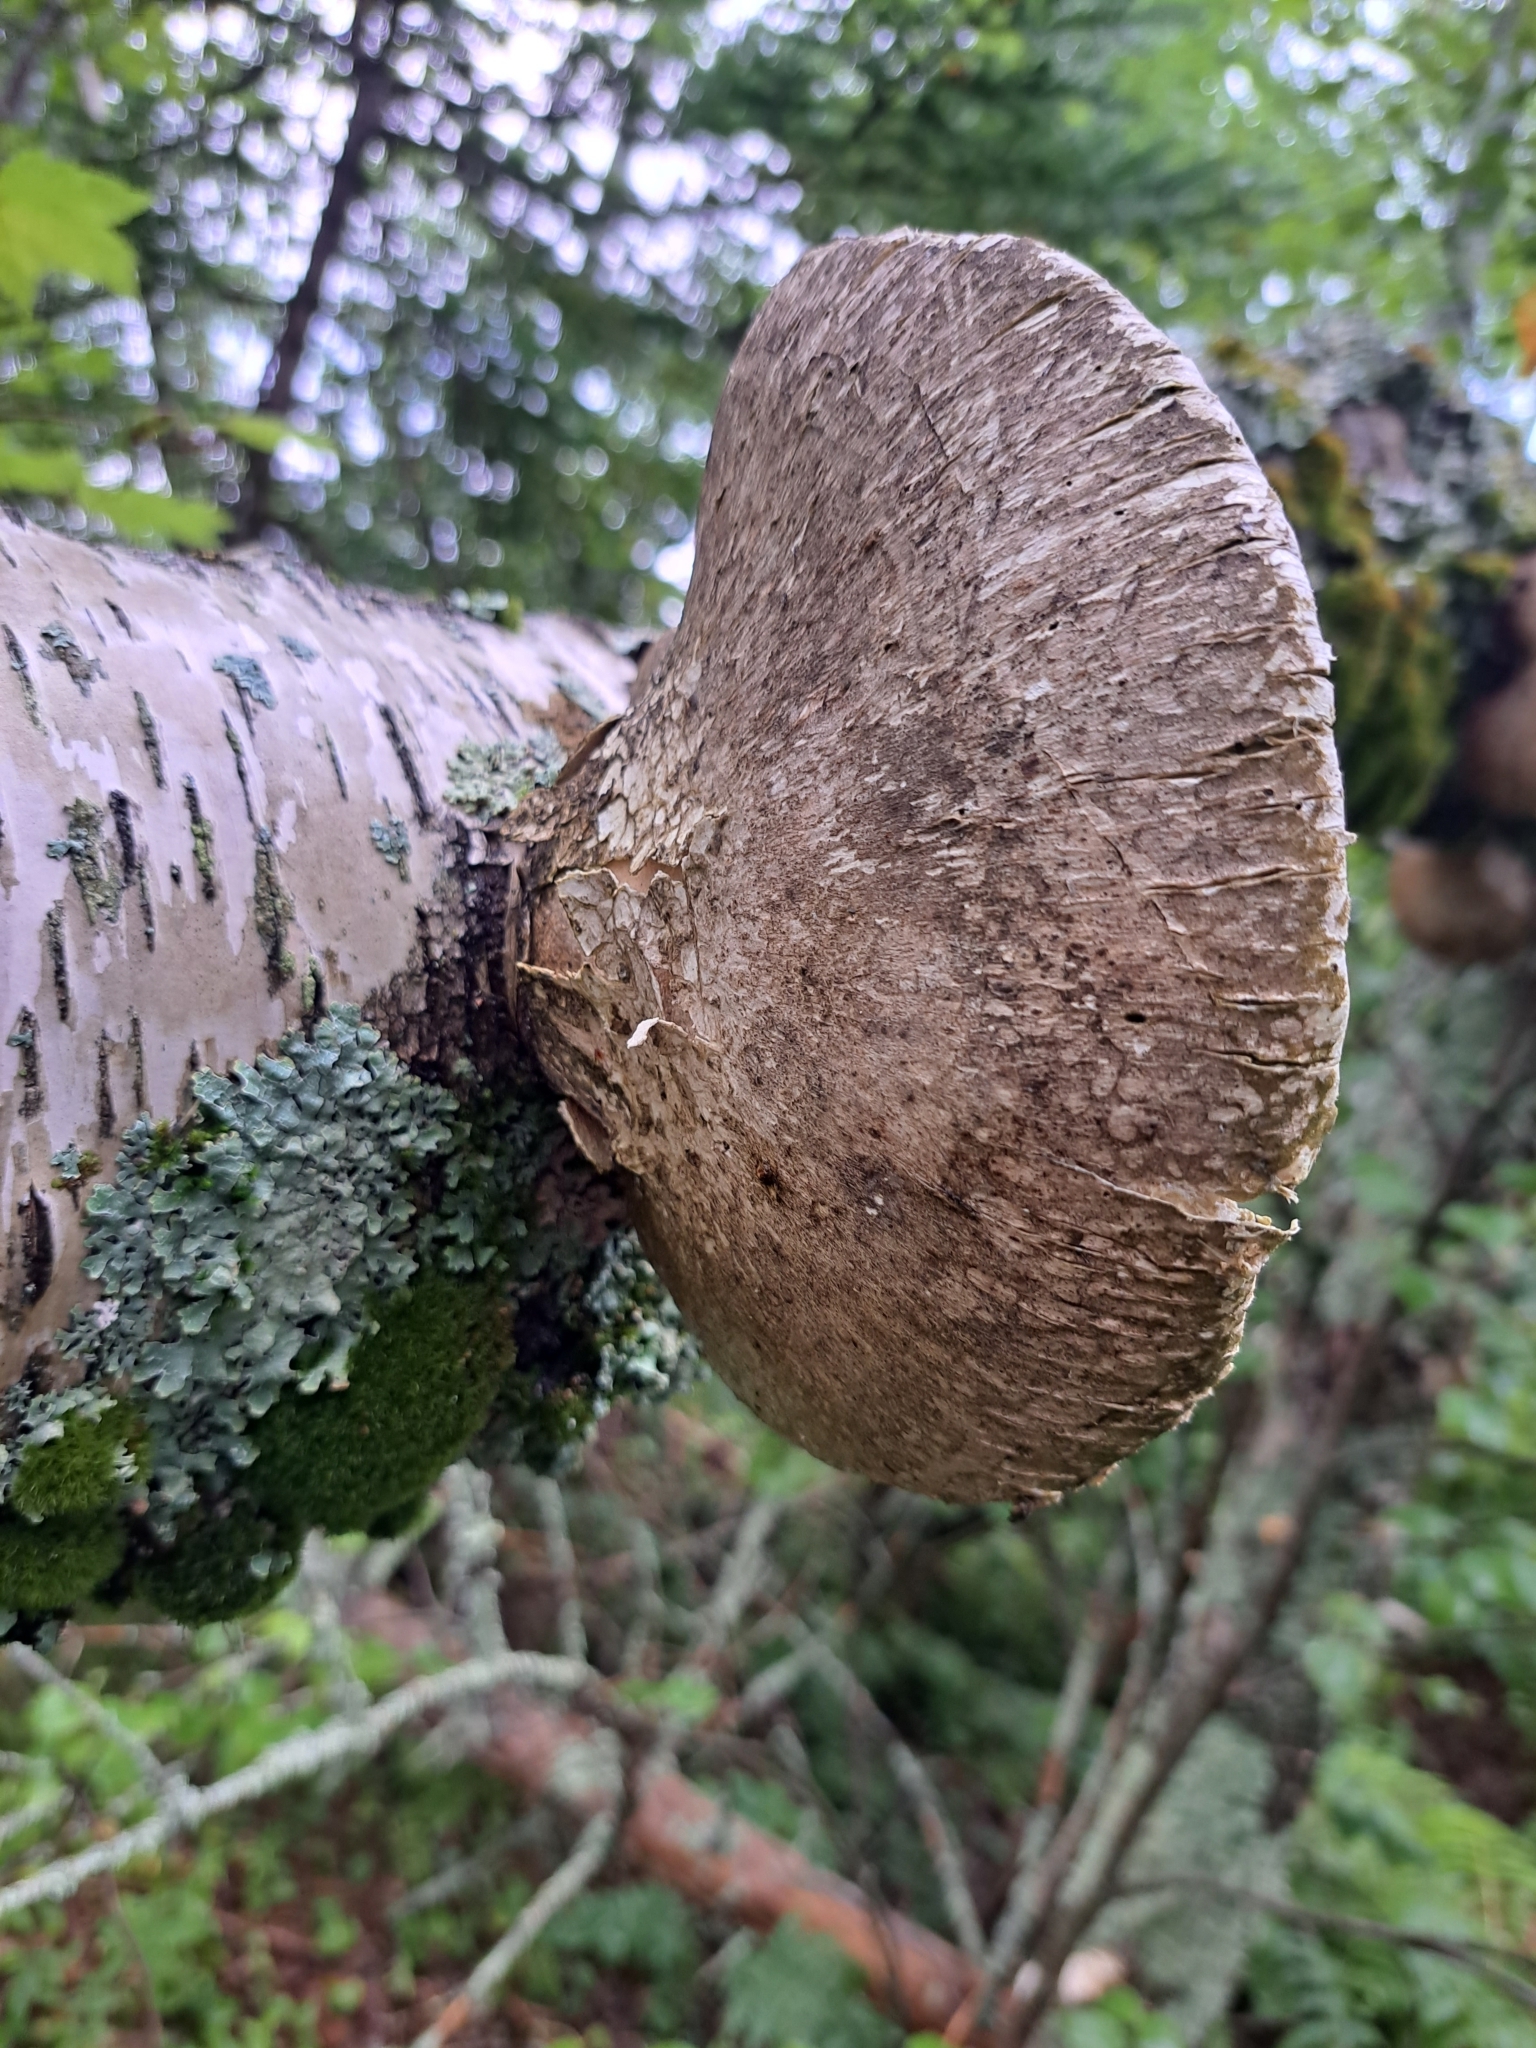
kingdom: Fungi
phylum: Basidiomycota
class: Agaricomycetes
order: Polyporales
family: Fomitopsidaceae
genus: Fomitopsis
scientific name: Fomitopsis betulina
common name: Birch polypore
